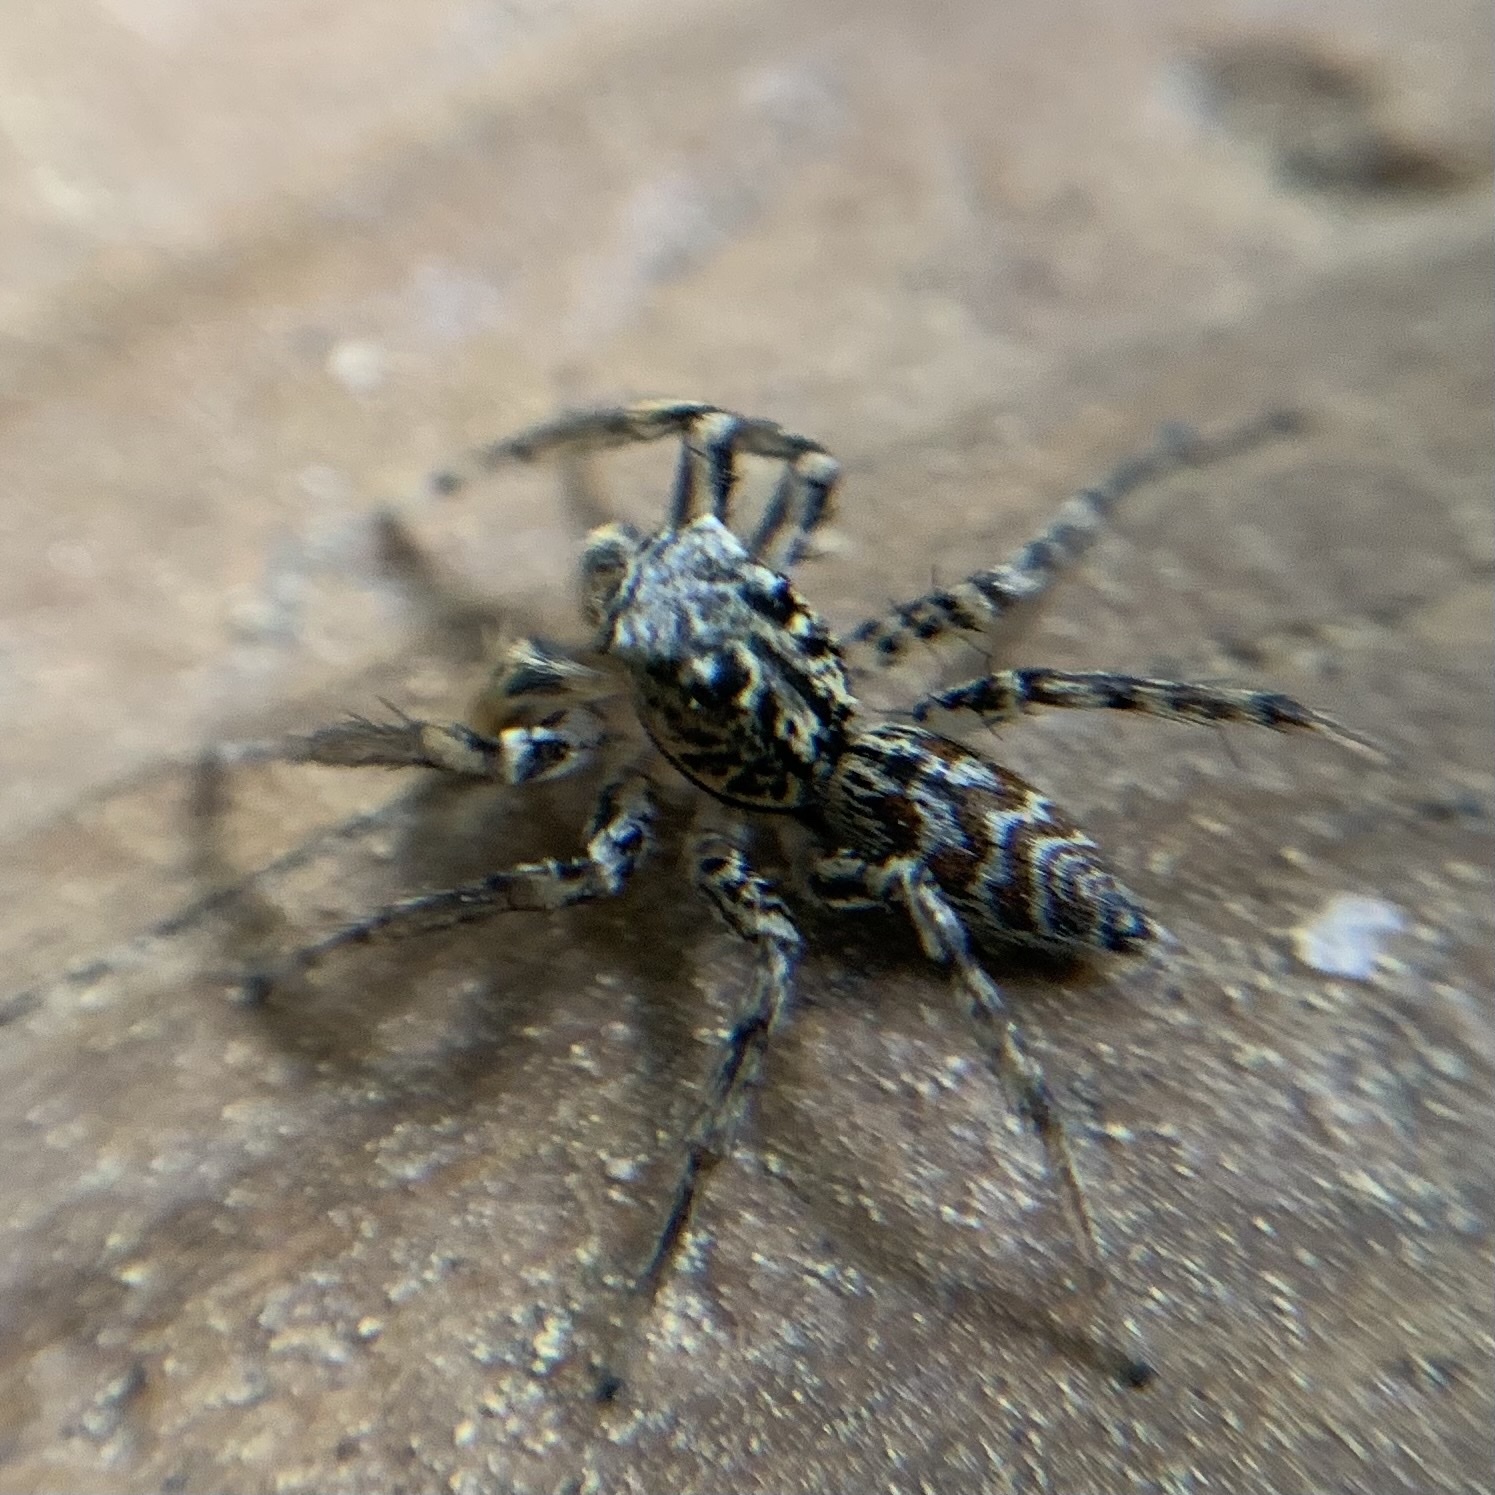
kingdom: Animalia
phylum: Arthropoda
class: Arachnida
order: Araneae
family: Salticidae
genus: Maevia
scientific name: Maevia inclemens
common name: Dimorphic jumper
